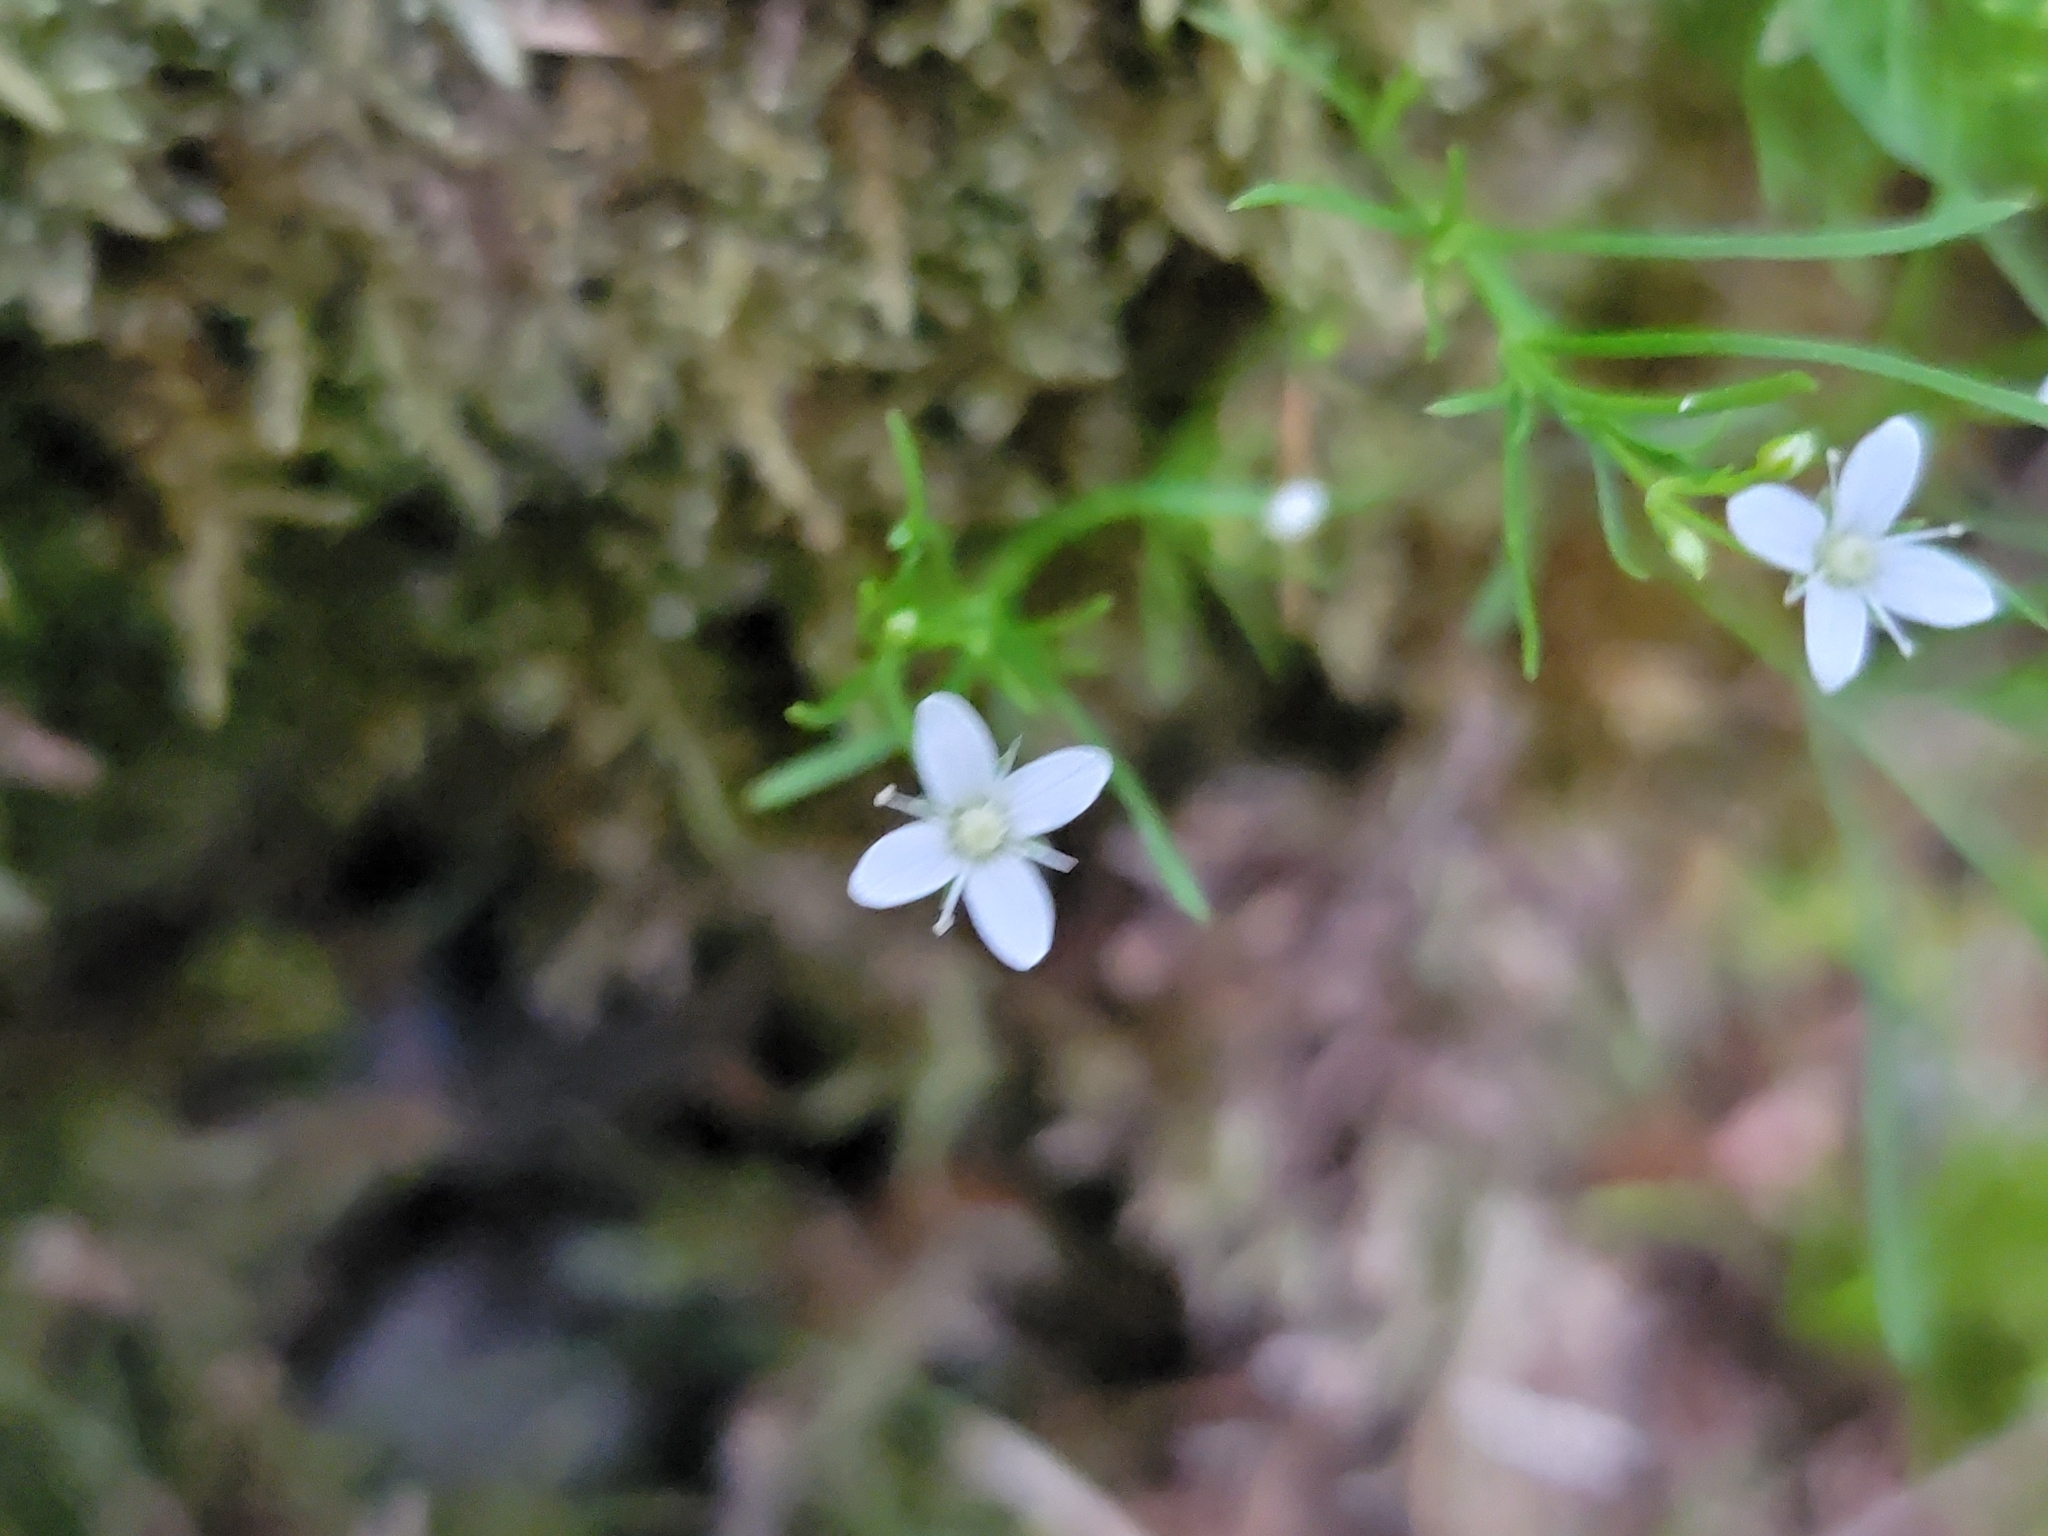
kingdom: Plantae
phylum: Tracheophyta
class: Magnoliopsida
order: Caryophyllales
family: Caryophyllaceae
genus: Moehringia
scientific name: Moehringia muscosa
